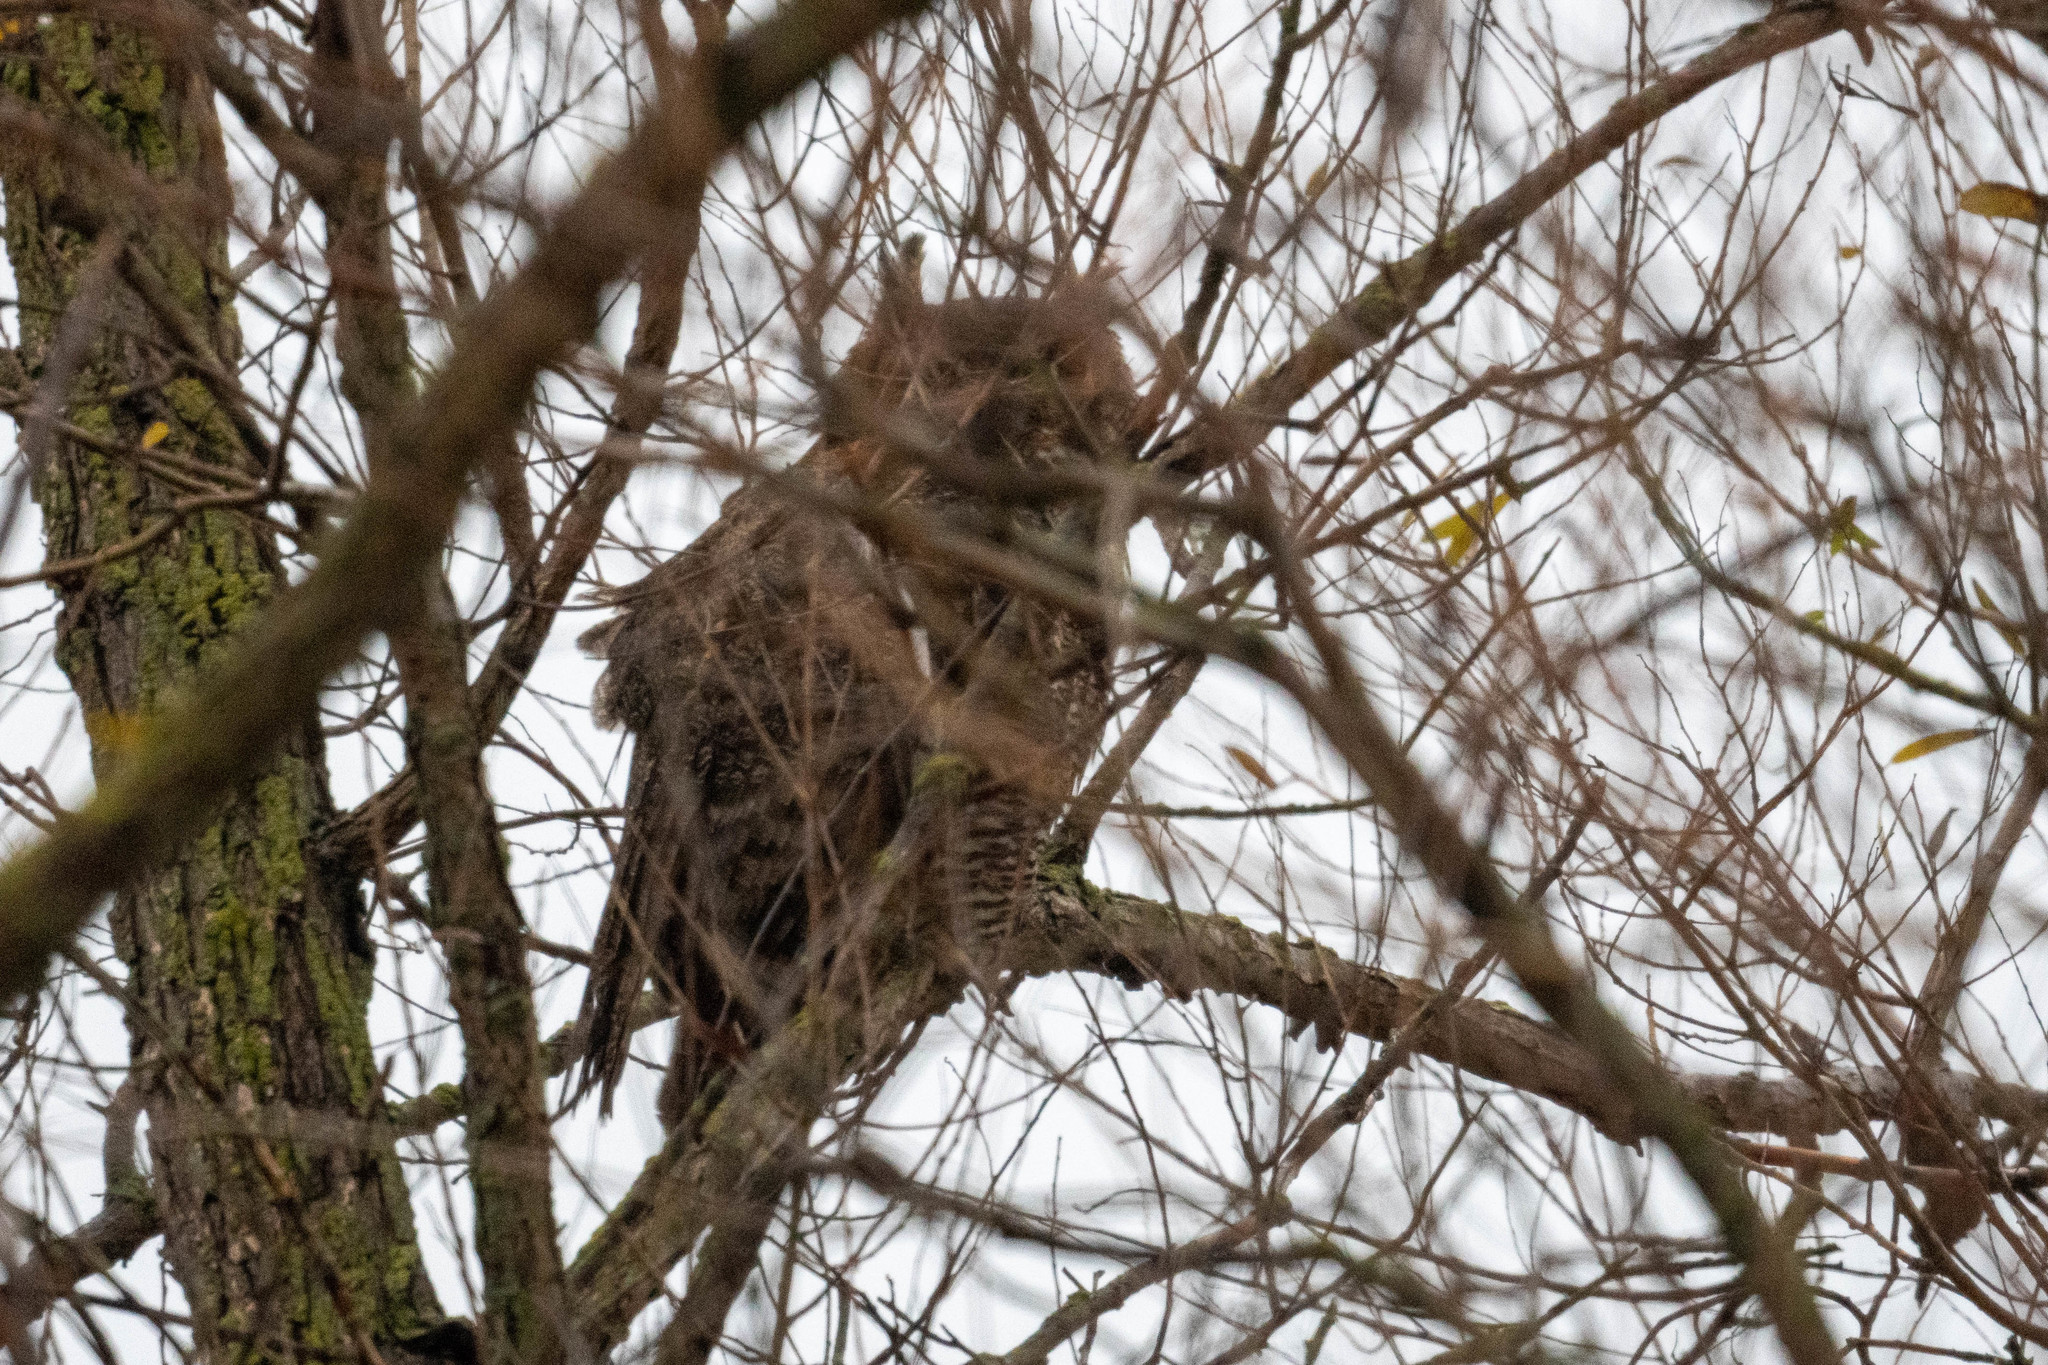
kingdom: Animalia
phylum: Chordata
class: Aves
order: Strigiformes
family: Strigidae
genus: Bubo
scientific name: Bubo virginianus
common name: Great horned owl
